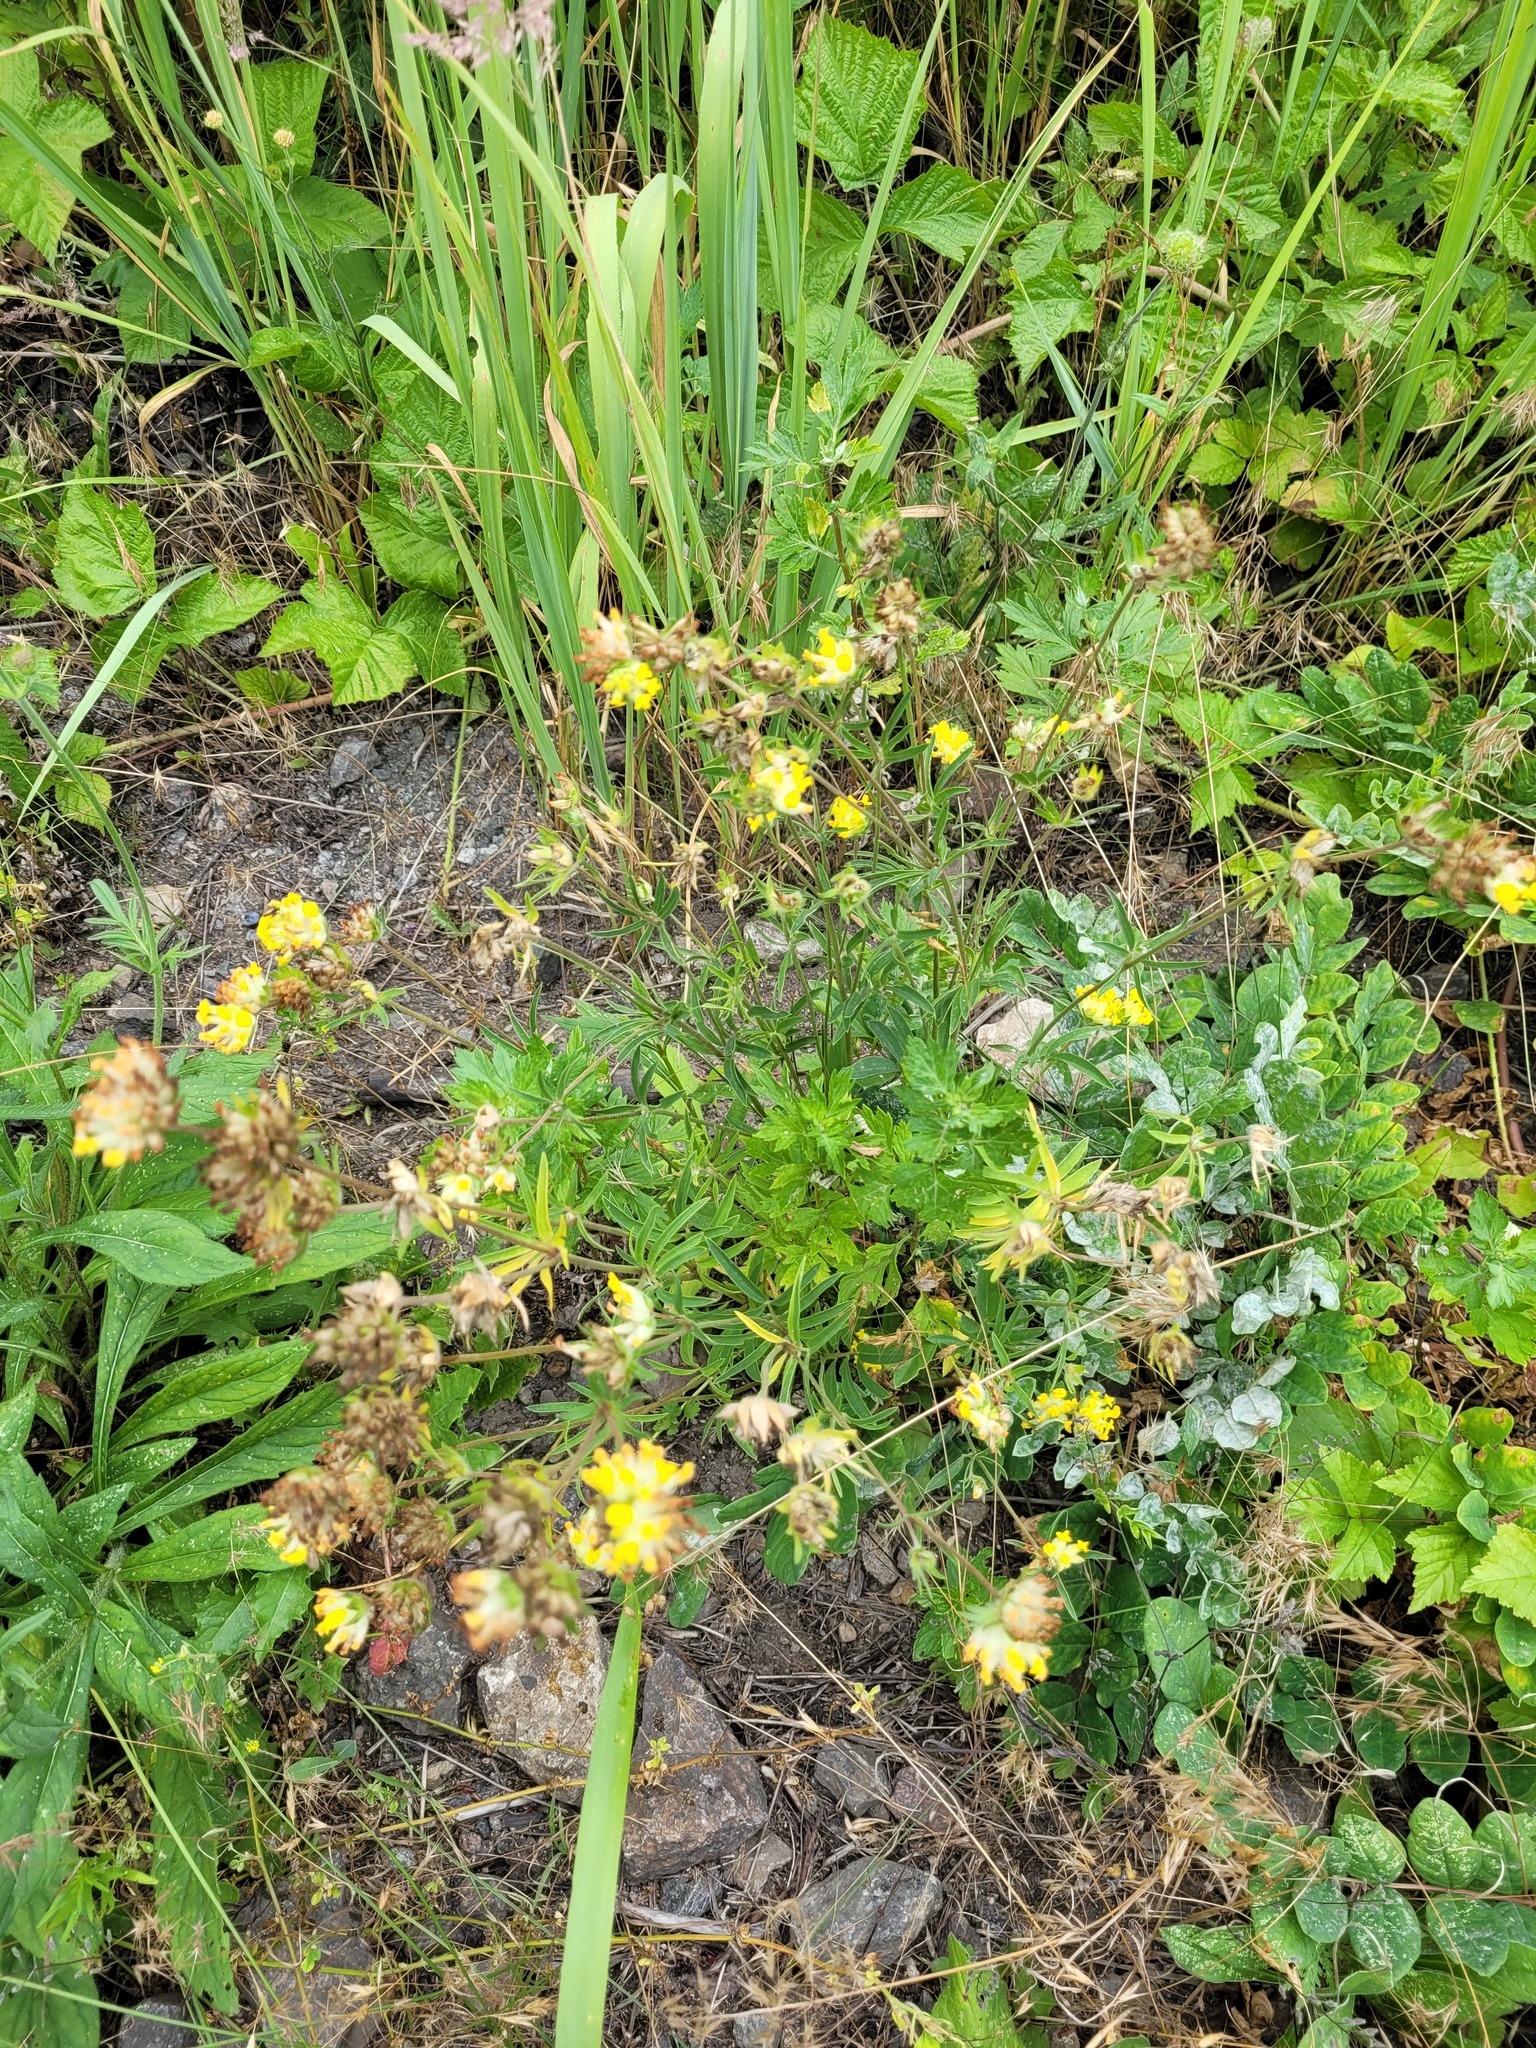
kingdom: Plantae
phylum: Tracheophyta
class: Magnoliopsida
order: Fabales
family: Fabaceae
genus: Anthyllis
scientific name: Anthyllis vulneraria
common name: Kidney vetch
